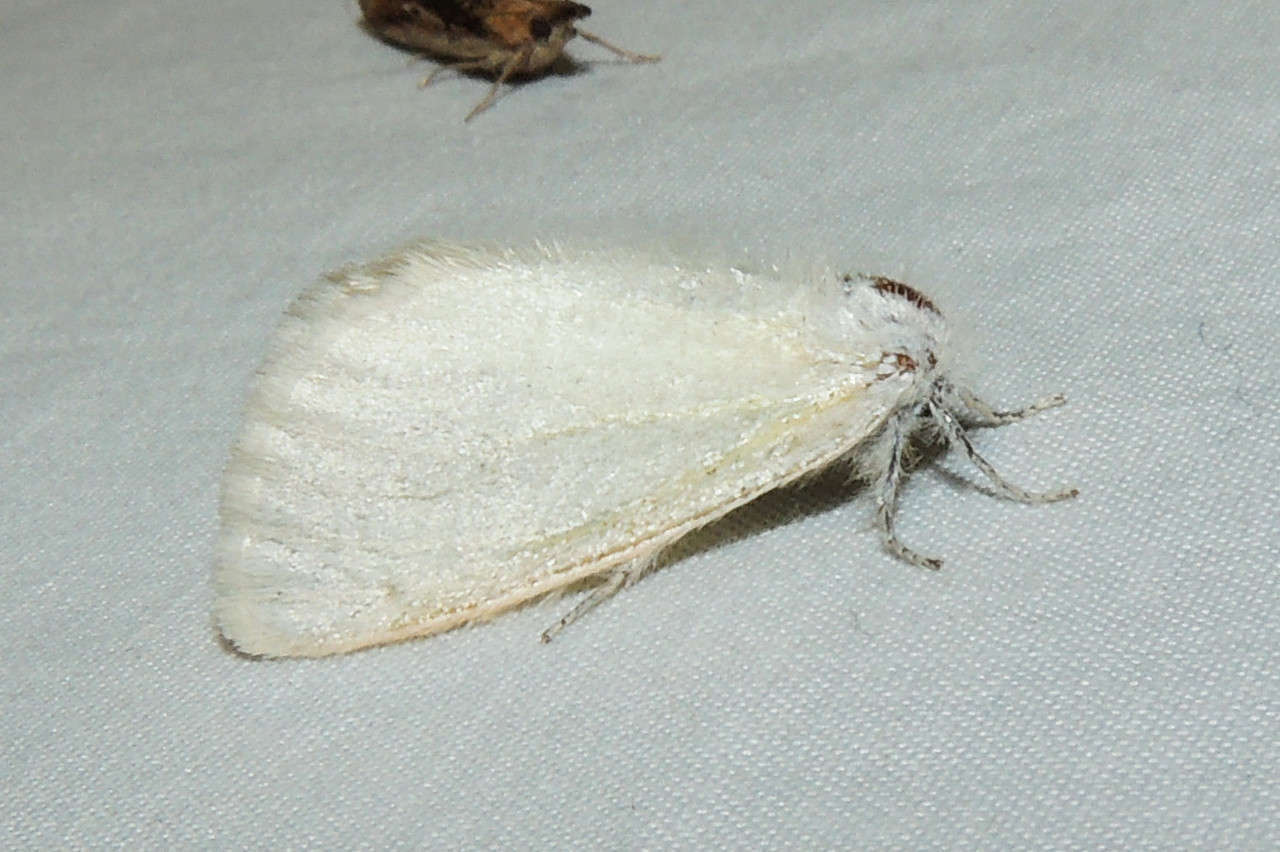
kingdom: Animalia
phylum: Arthropoda
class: Insecta
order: Lepidoptera
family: Erebidae
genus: Acyphas
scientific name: Acyphas semiochrea
